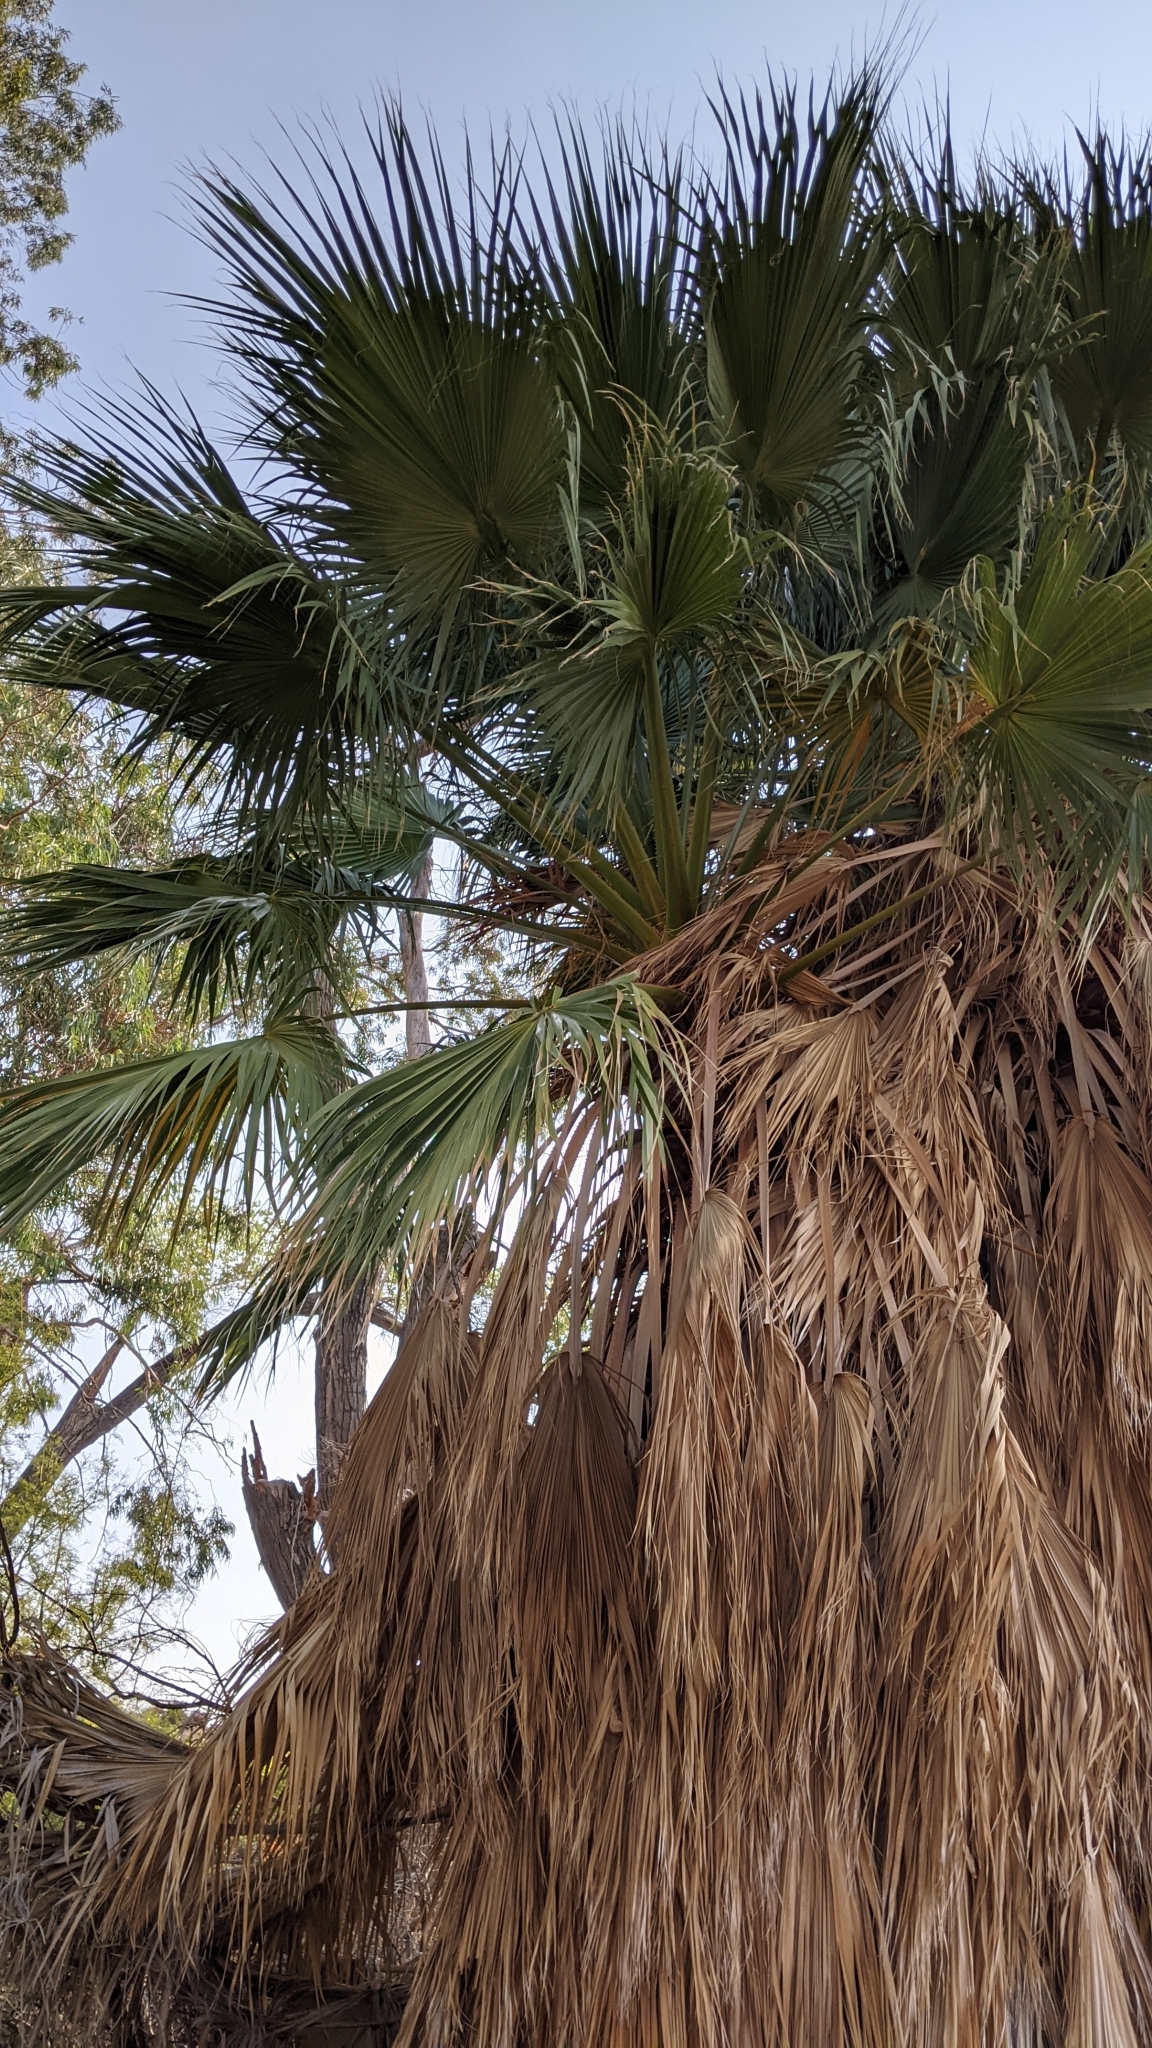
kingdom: Plantae
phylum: Tracheophyta
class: Liliopsida
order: Arecales
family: Arecaceae
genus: Washingtonia
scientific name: Washingtonia filifera
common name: California fan palm
